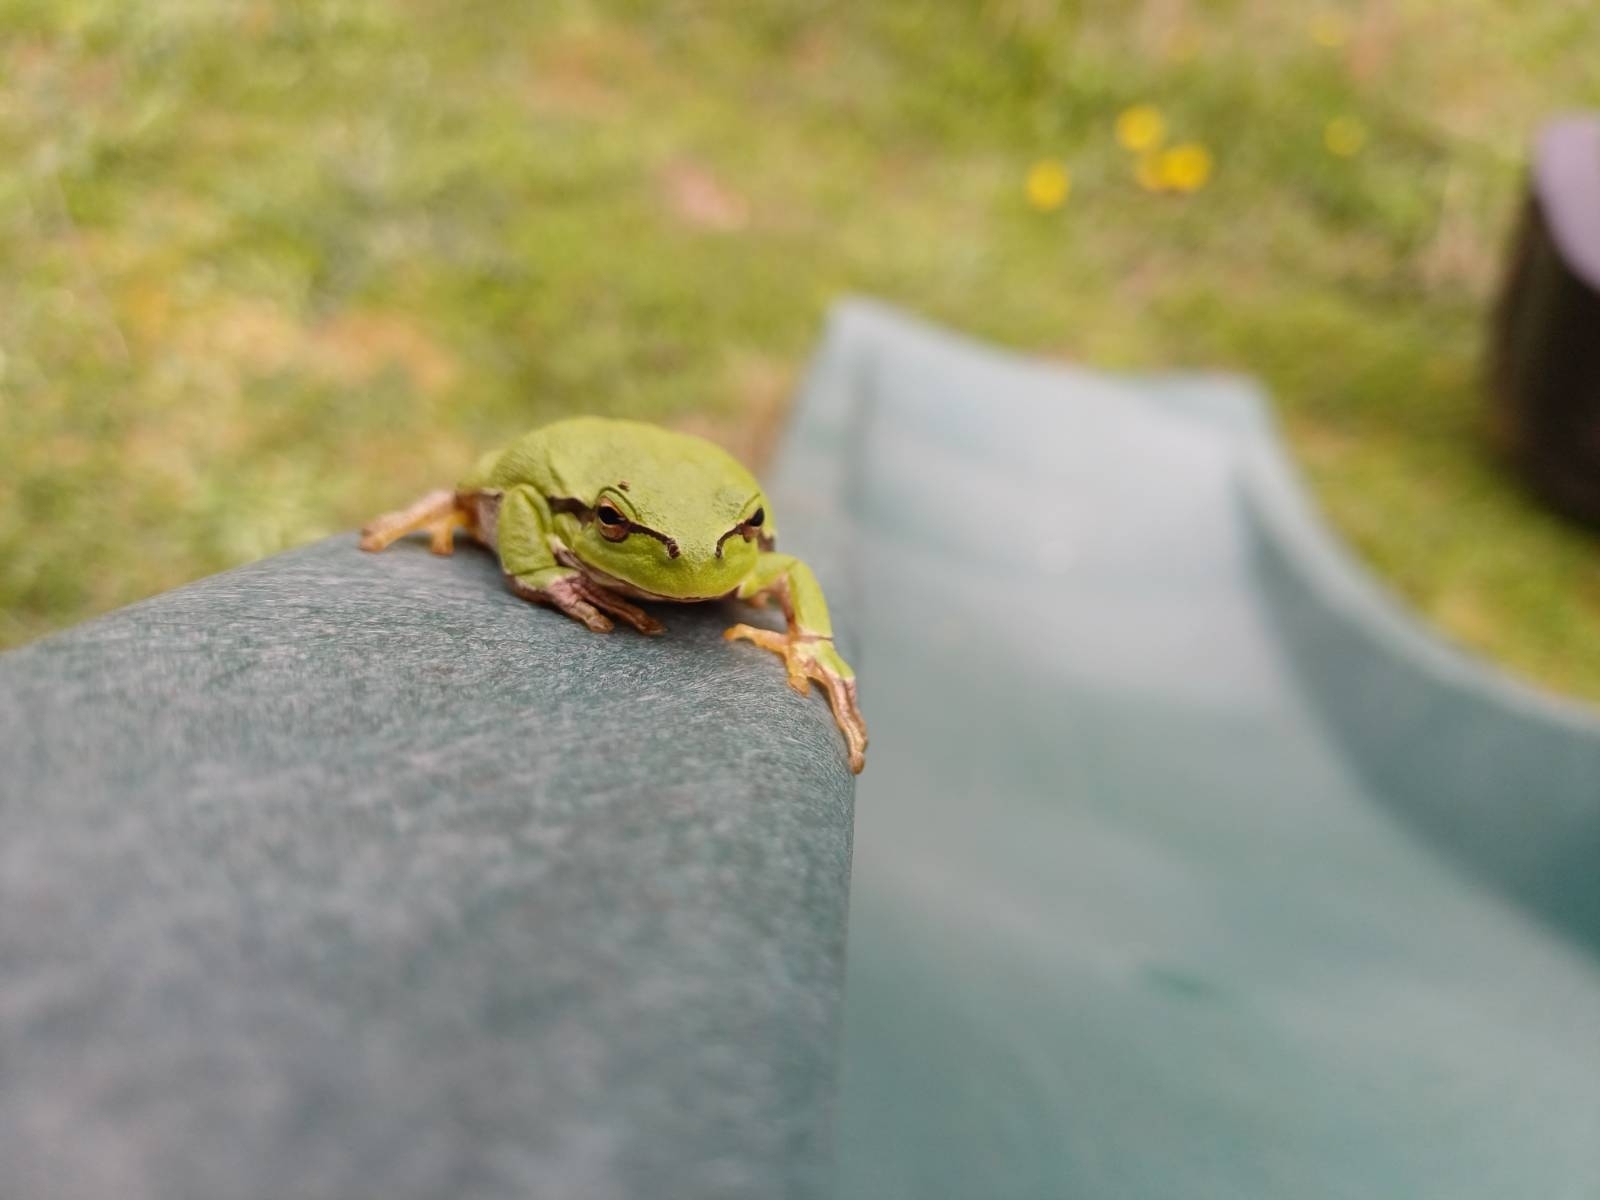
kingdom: Animalia
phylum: Chordata
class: Amphibia
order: Anura
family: Hylidae
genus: Hyla
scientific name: Hyla arborea
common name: Common tree frog
